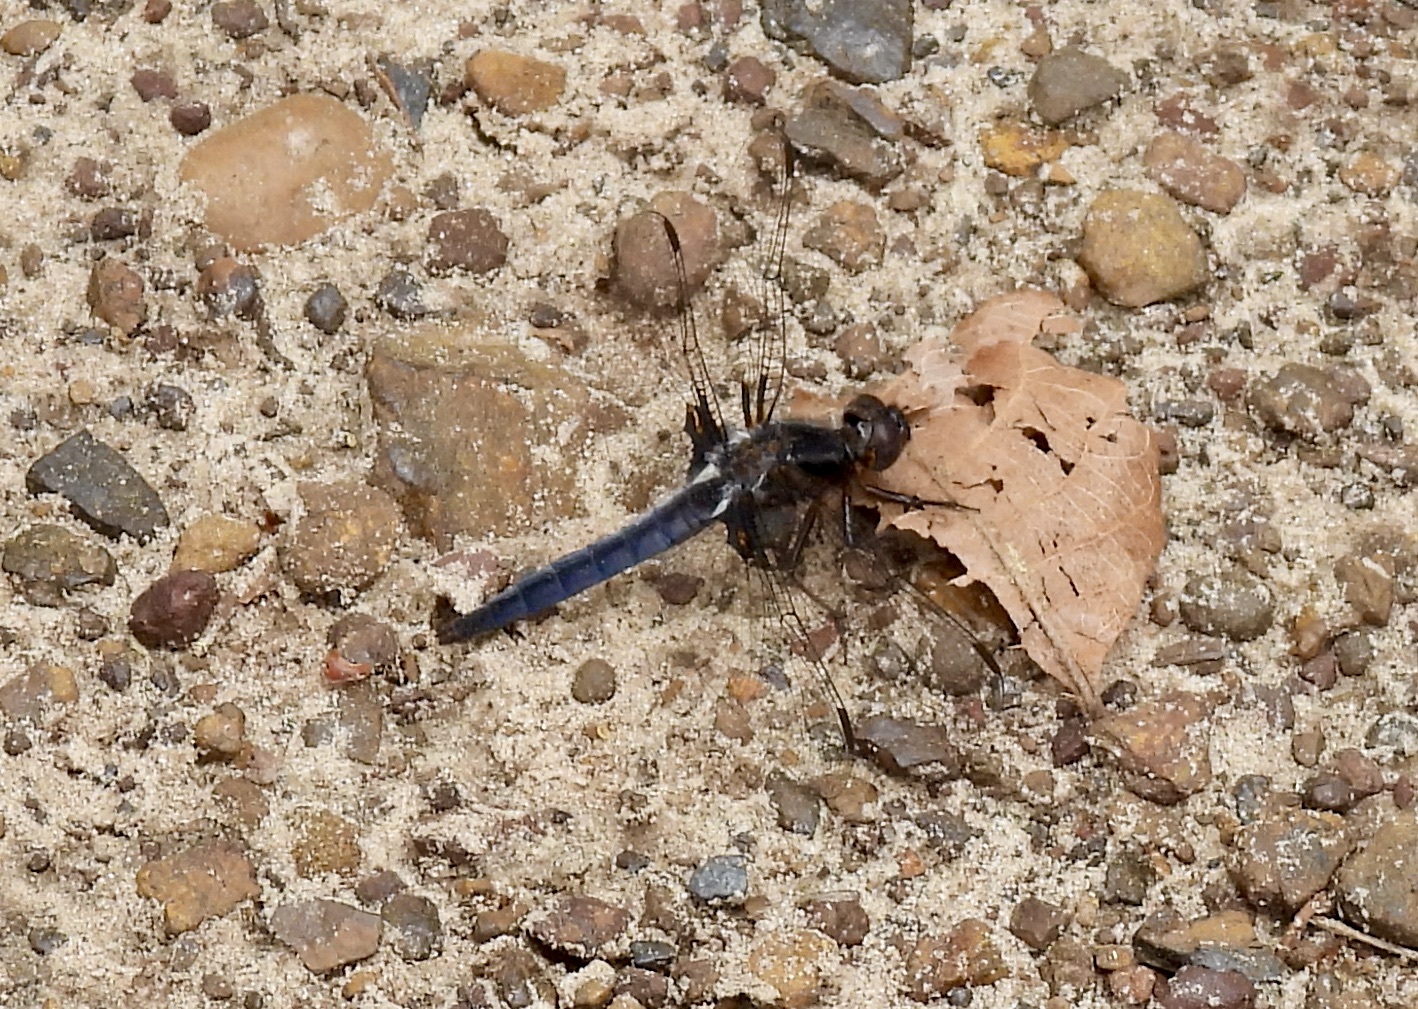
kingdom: Animalia
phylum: Arthropoda
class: Insecta
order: Odonata
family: Libellulidae
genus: Ladona
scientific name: Ladona deplanata
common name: Blue corporal
